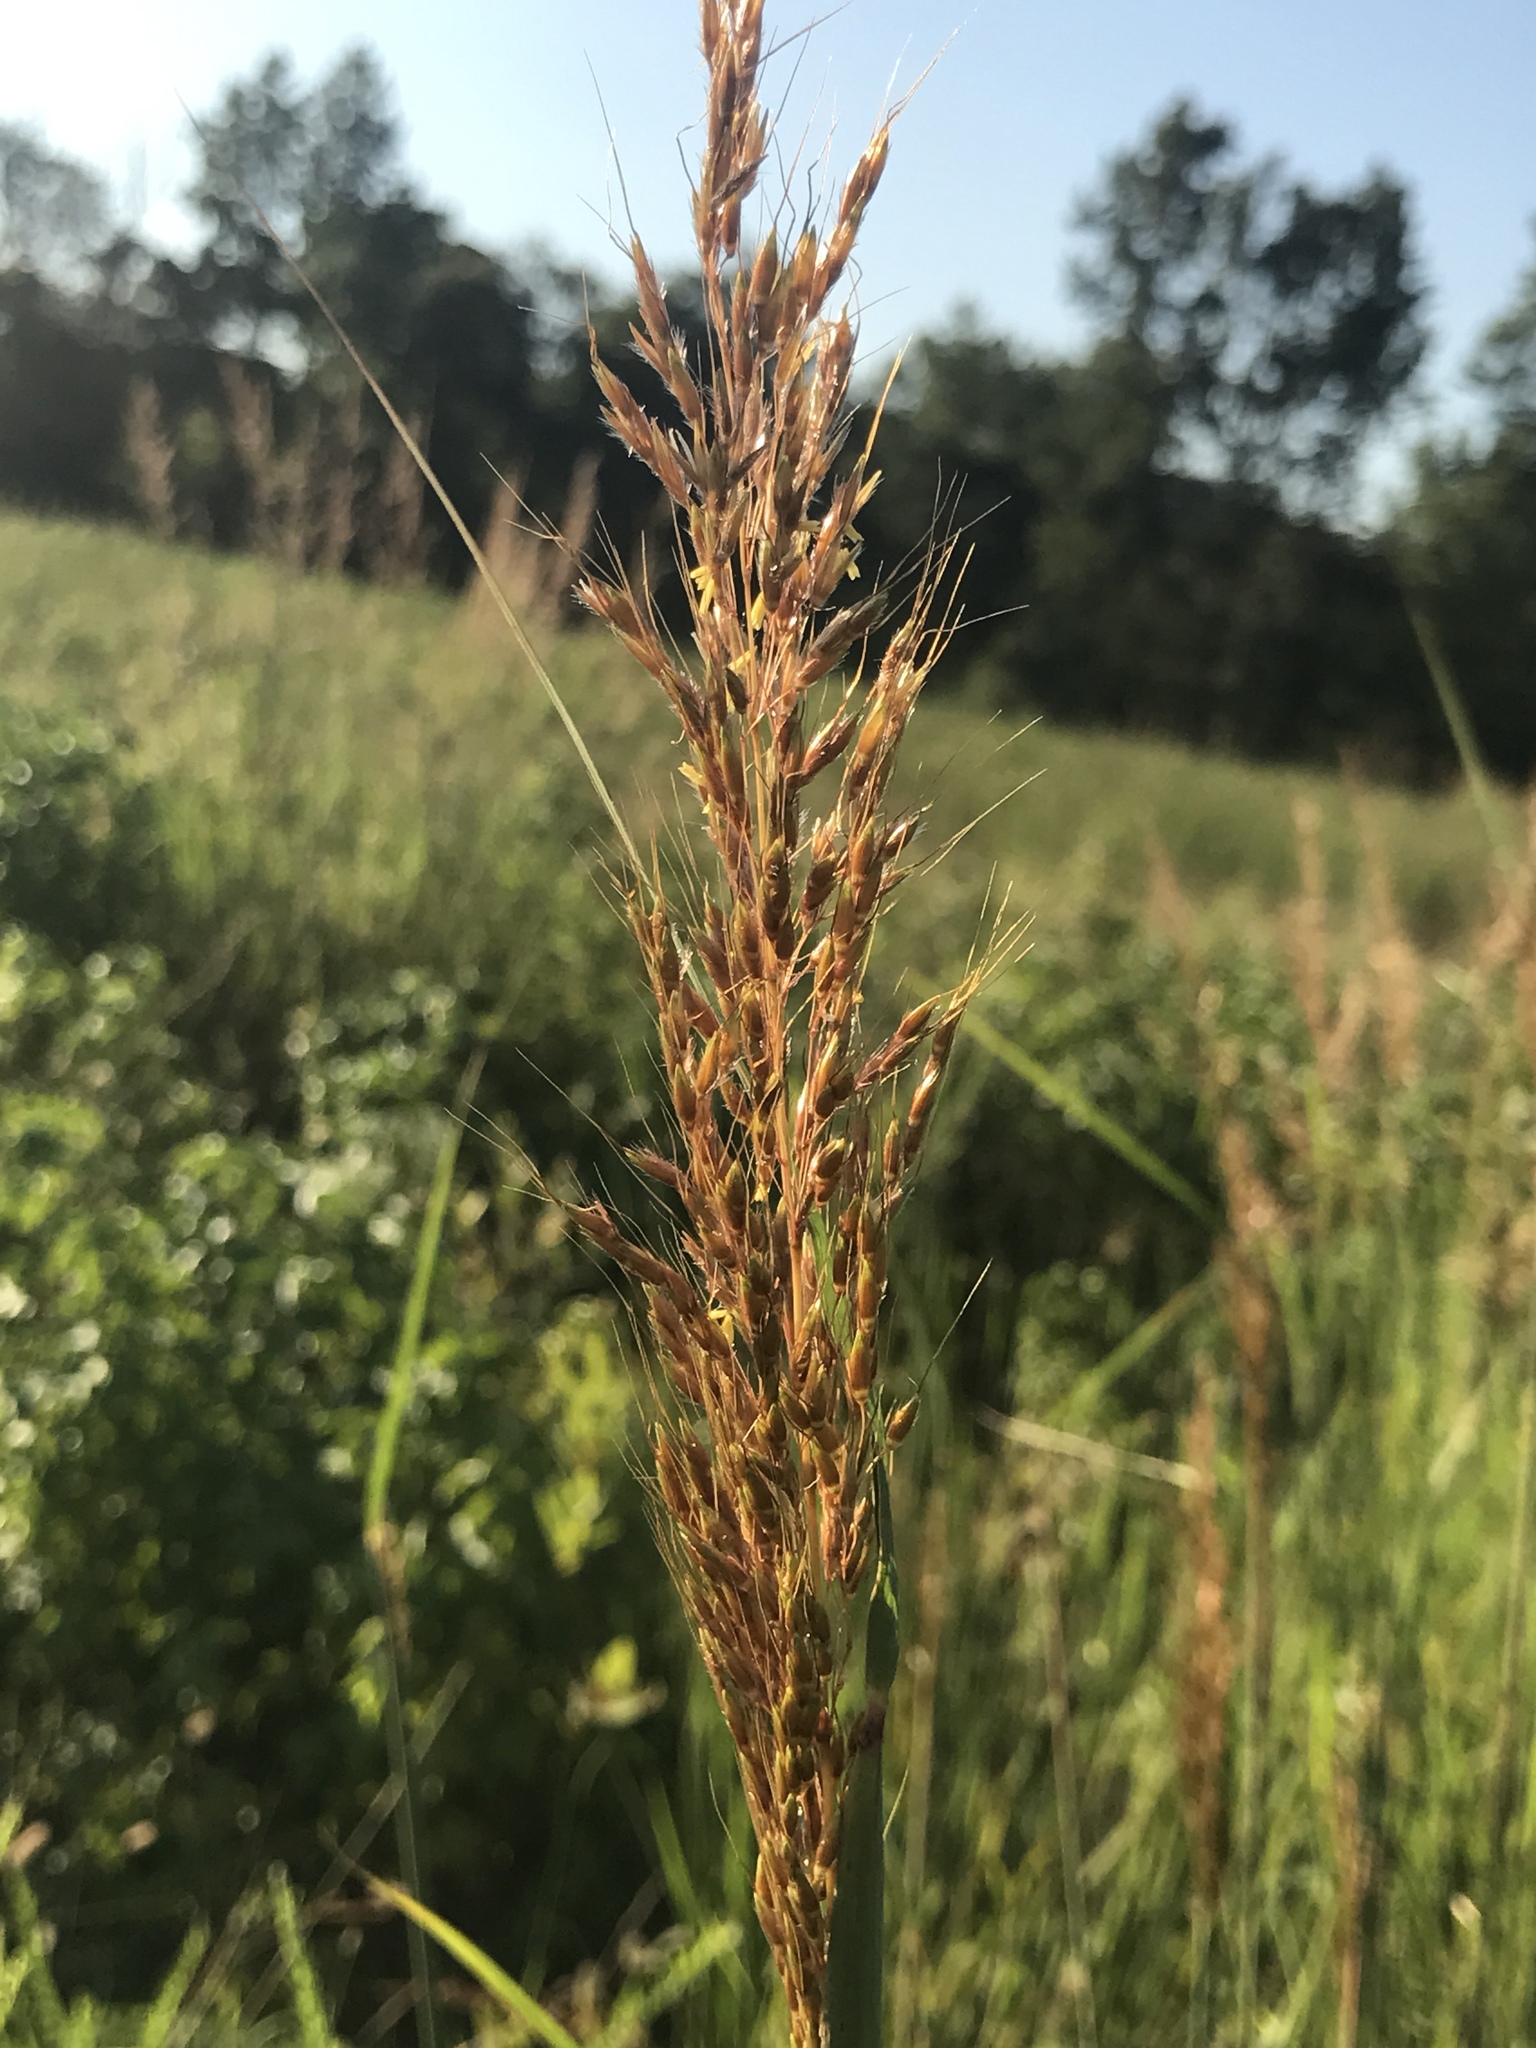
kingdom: Plantae
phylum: Tracheophyta
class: Liliopsida
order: Poales
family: Poaceae
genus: Sorghastrum
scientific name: Sorghastrum nutans
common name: Indian grass
